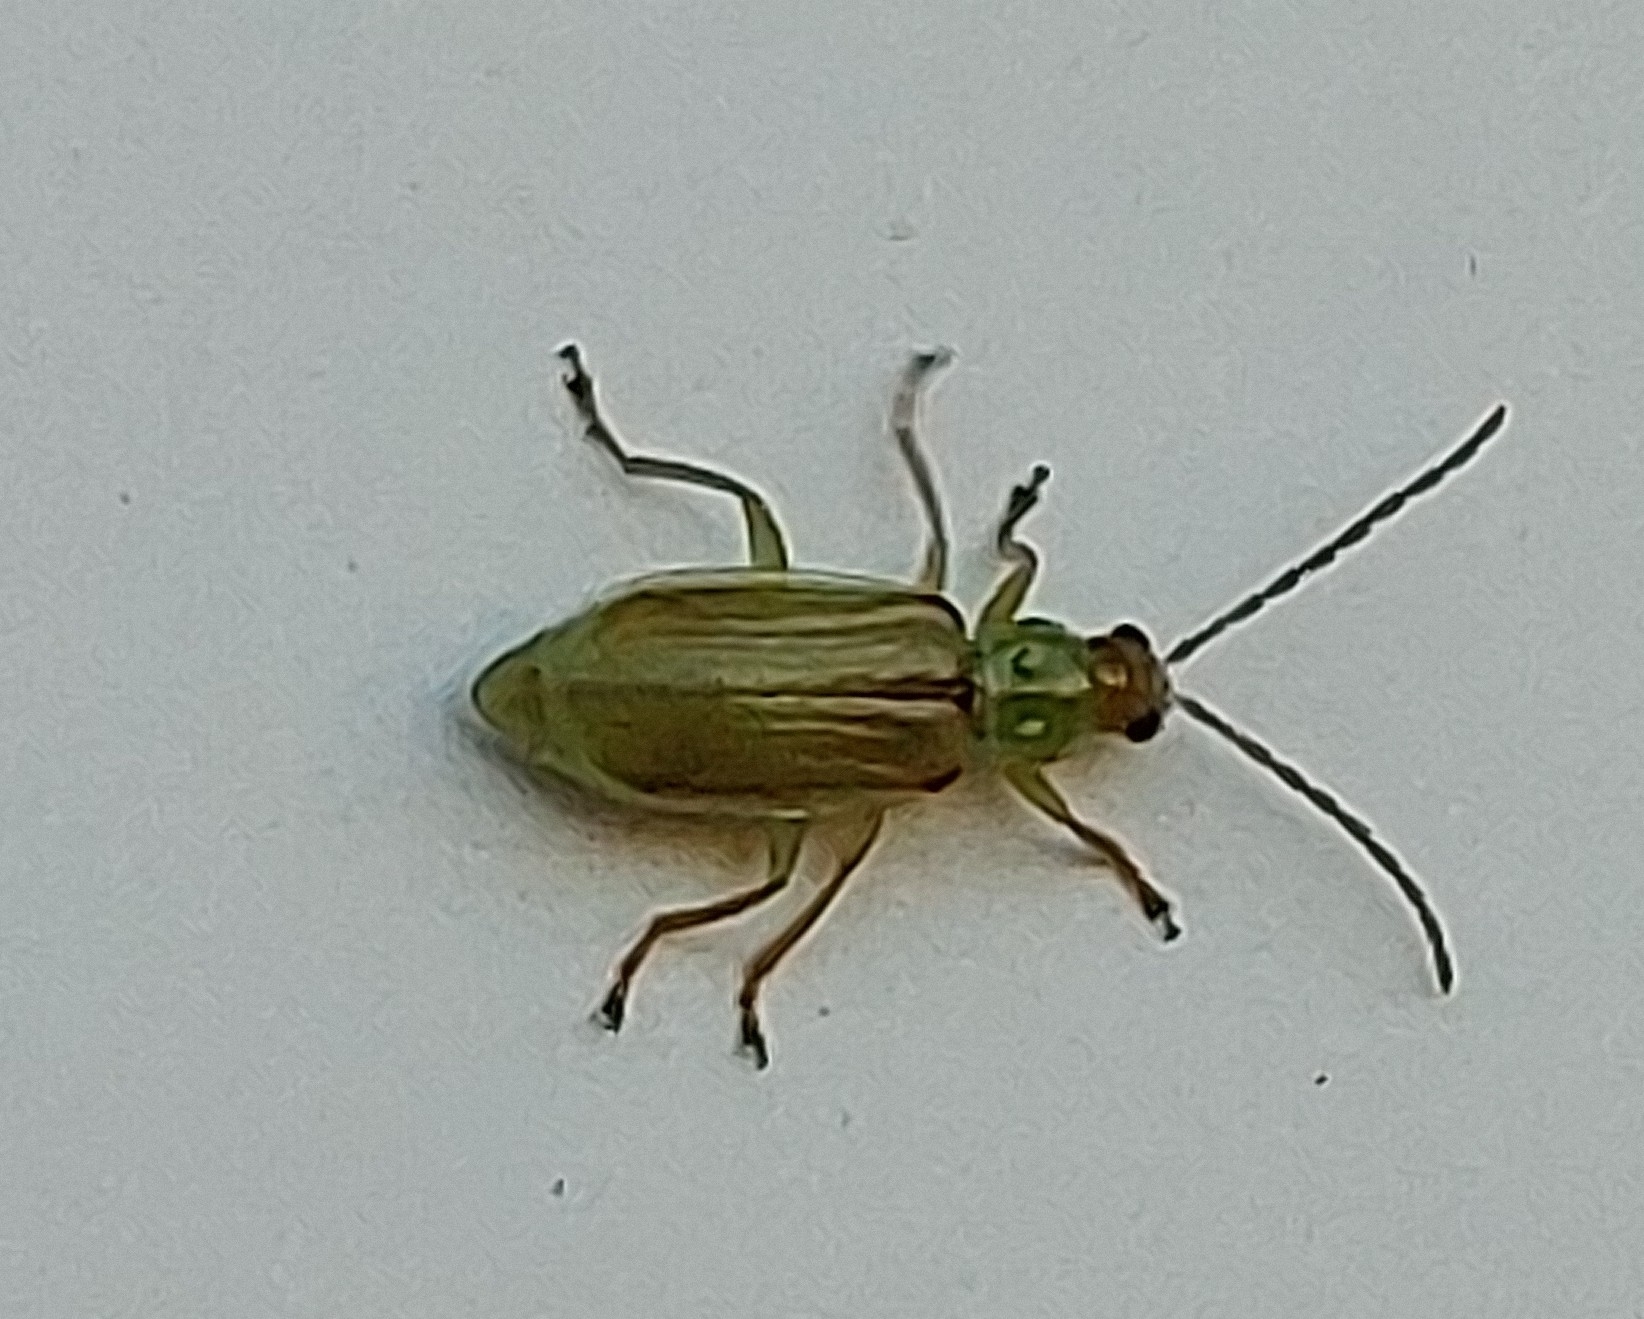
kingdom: Animalia
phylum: Arthropoda
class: Insecta
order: Coleoptera
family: Chrysomelidae
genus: Diabrotica
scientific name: Diabrotica barberi
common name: Northern corn rootworm
